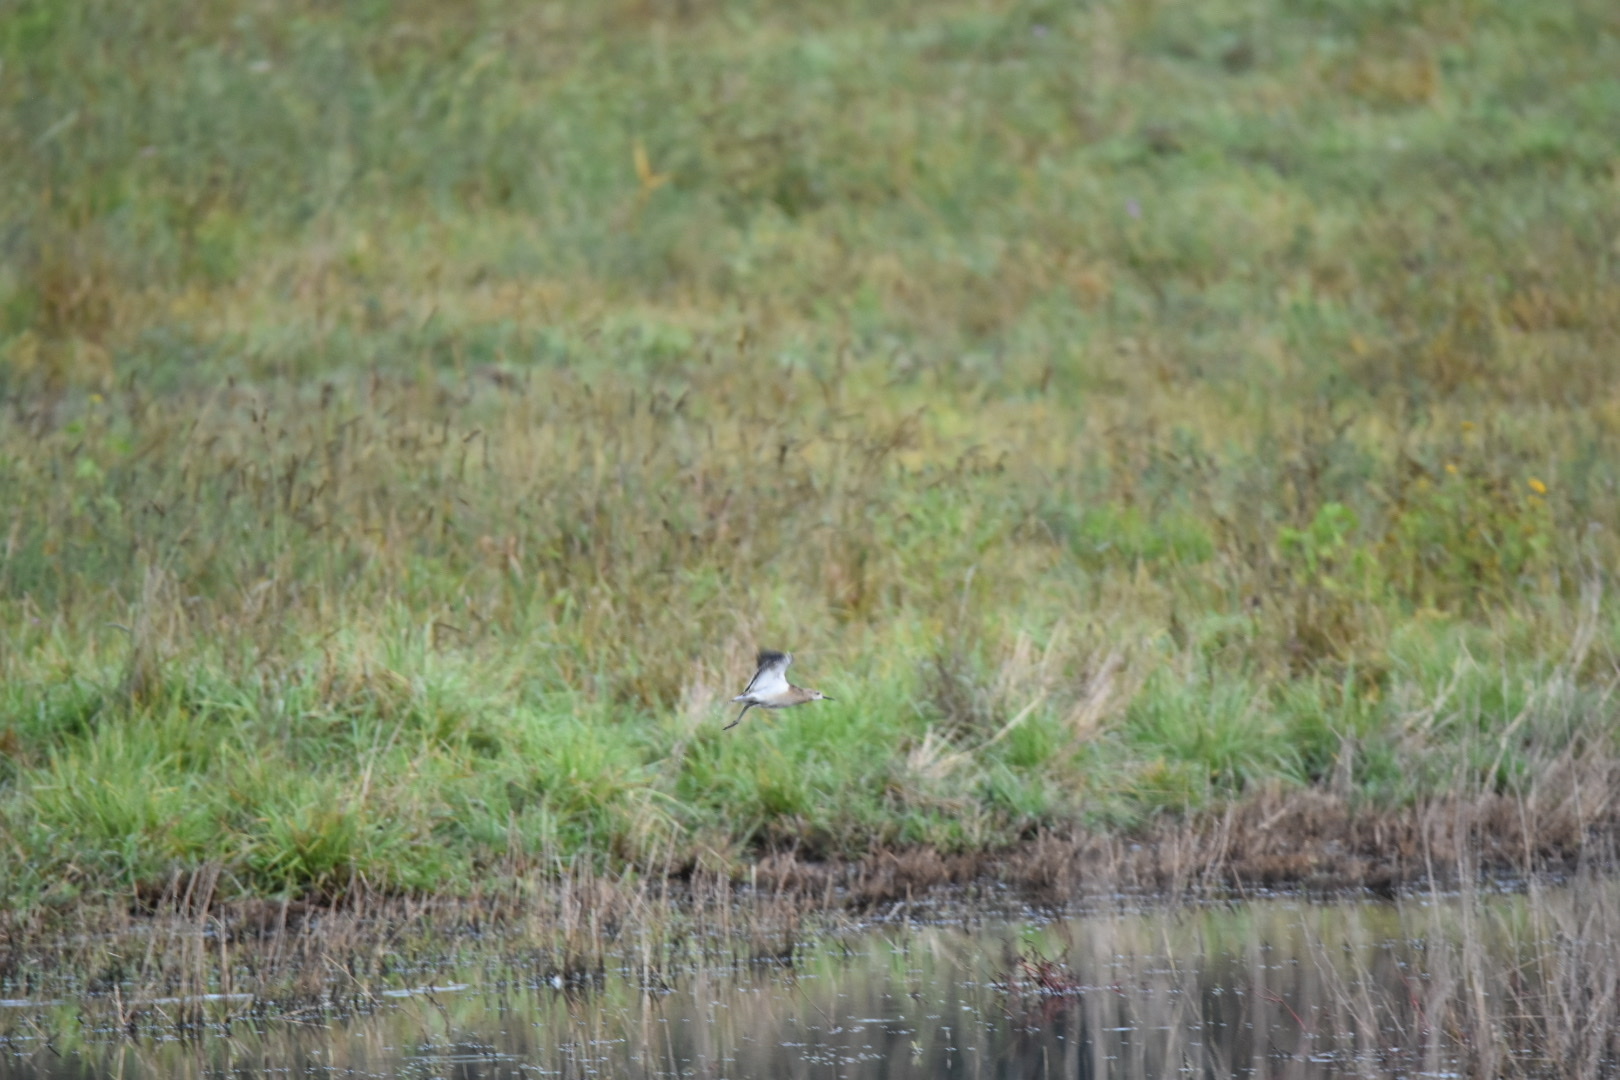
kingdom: Animalia
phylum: Chordata
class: Aves
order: Charadriiformes
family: Scolopacidae
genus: Calidris
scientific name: Calidris pugnax
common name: Ruff
